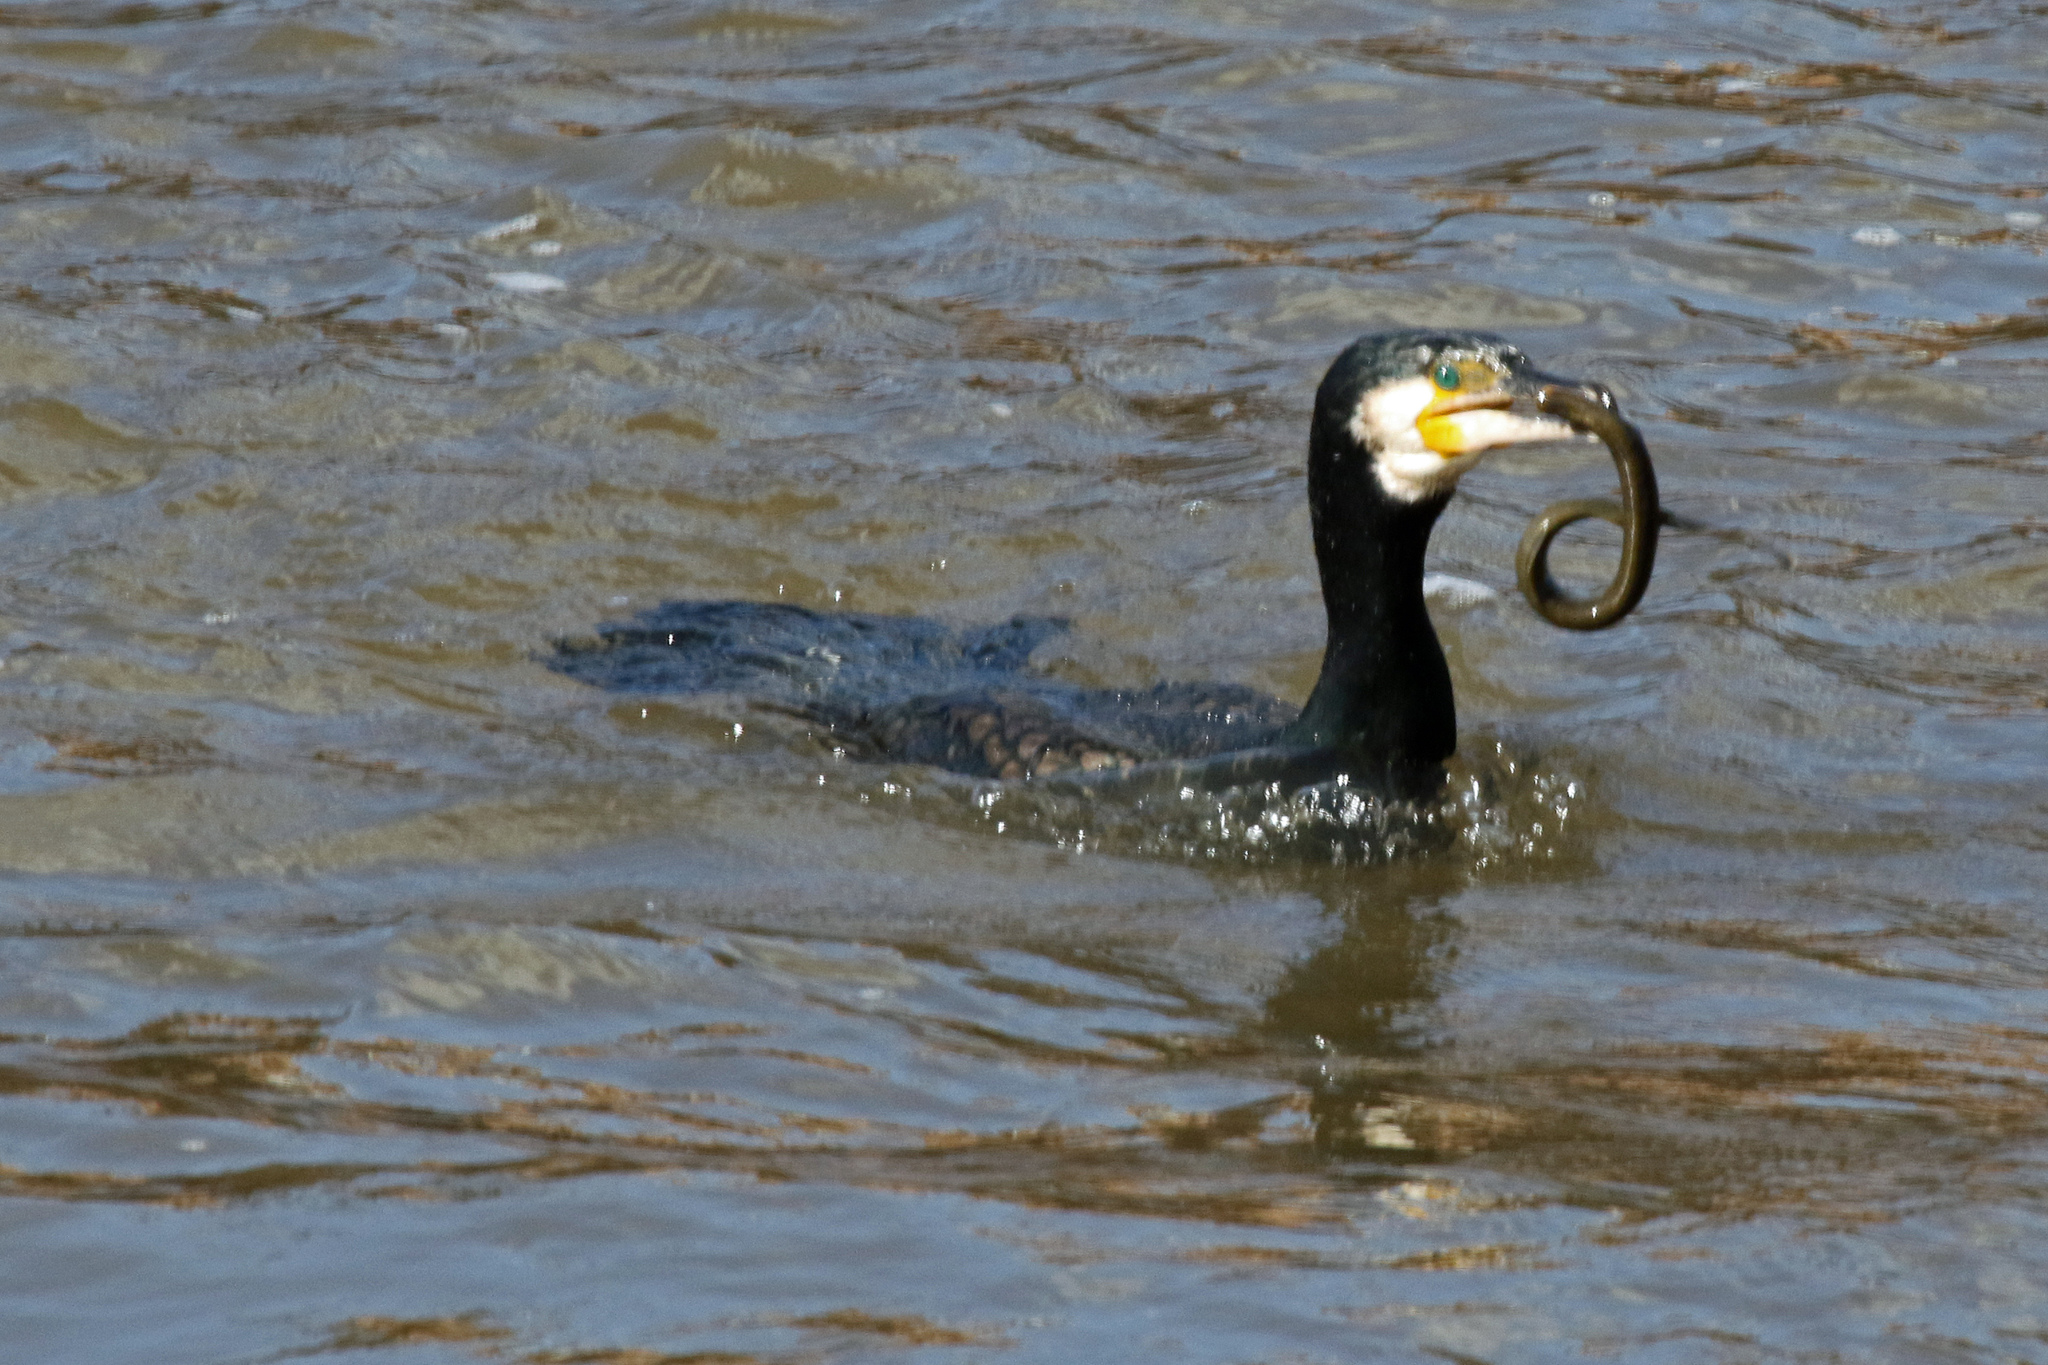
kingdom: Animalia
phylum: Chordata
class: Aves
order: Suliformes
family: Phalacrocoracidae
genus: Phalacrocorax
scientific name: Phalacrocorax carbo
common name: Great cormorant
